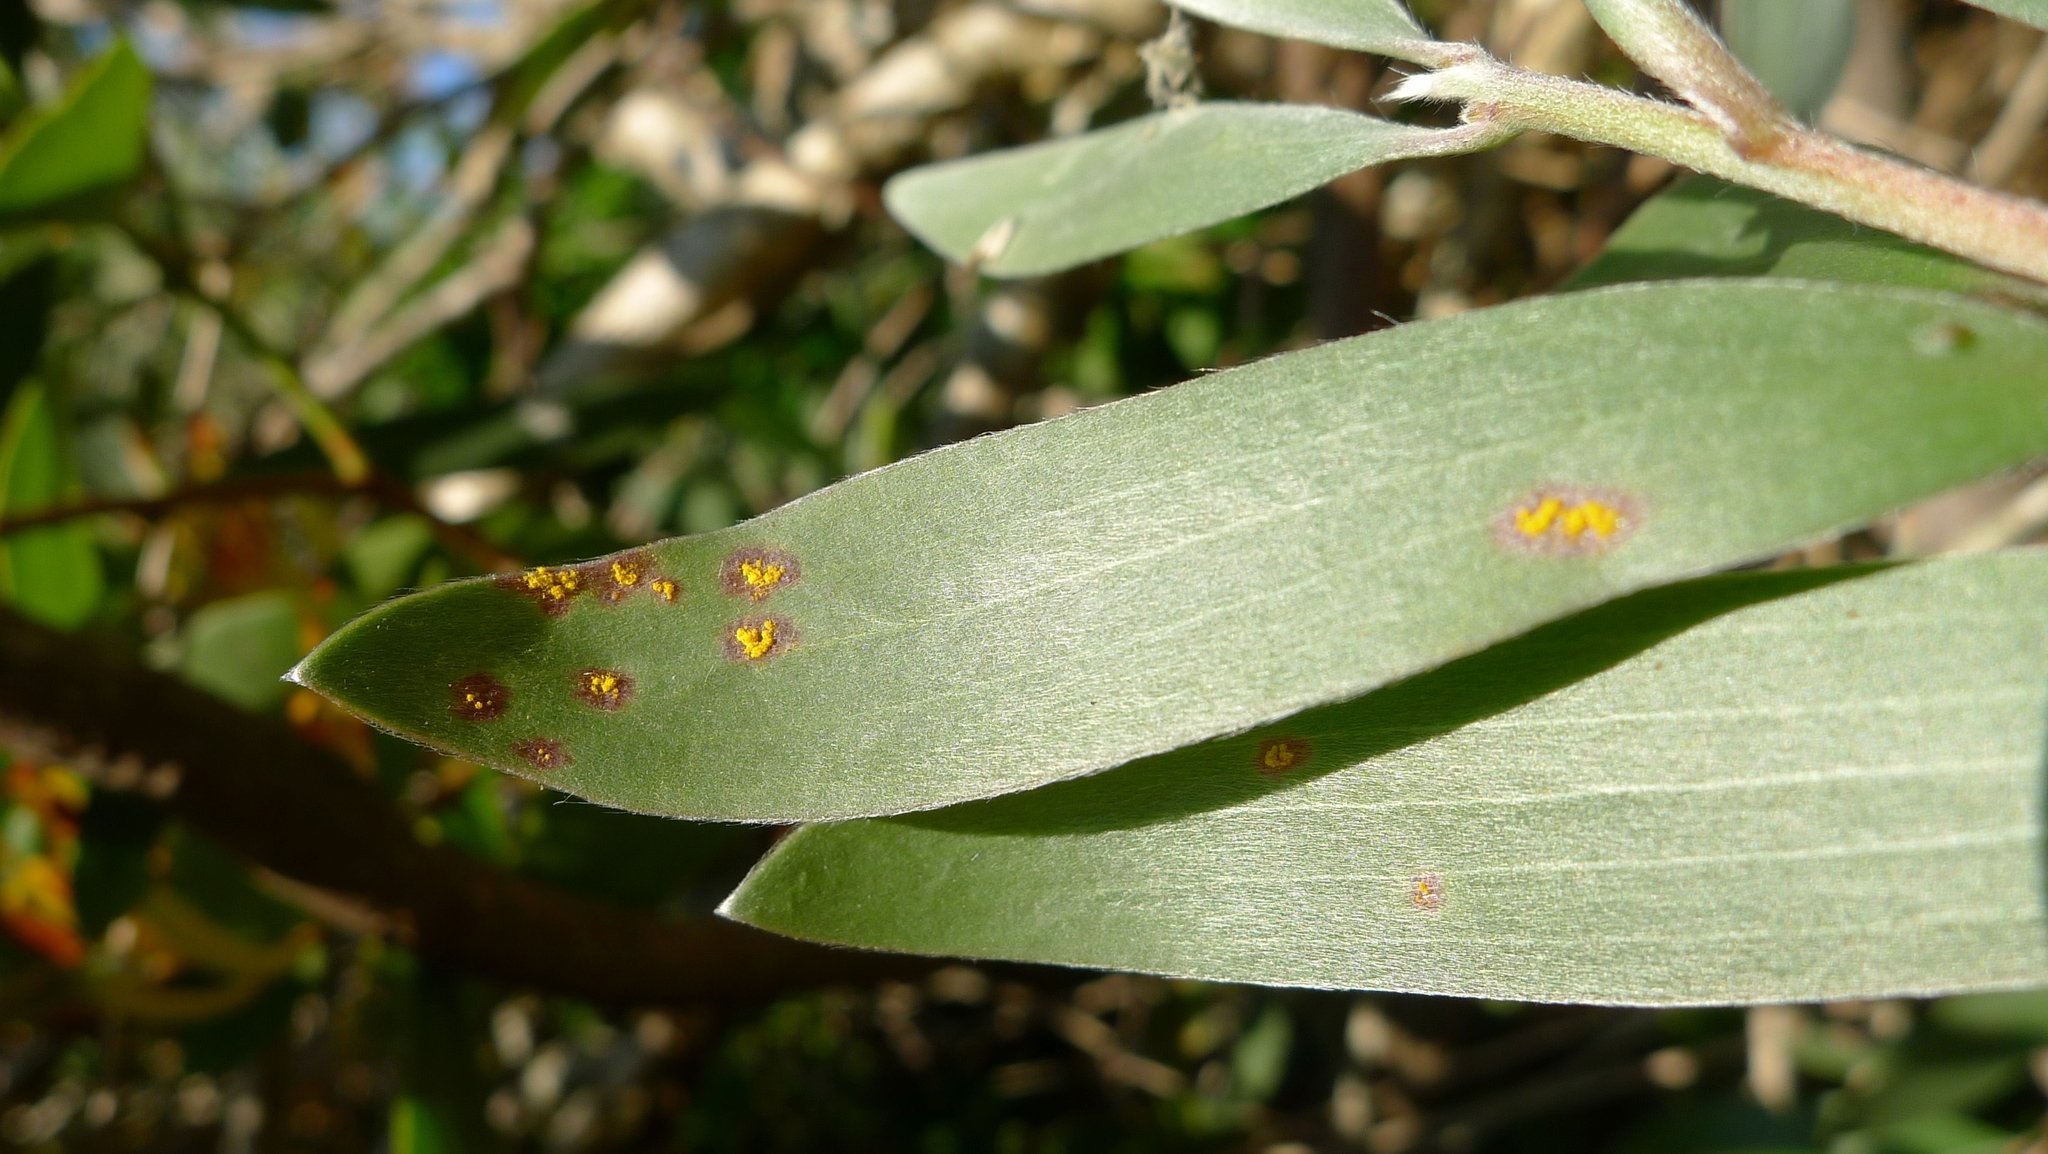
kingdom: Fungi
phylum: Basidiomycota
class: Pucciniomycetes
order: Pucciniales
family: Sphaerophragmiaceae
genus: Austropuccinia
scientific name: Austropuccinia psidii
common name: Myrtle rust
